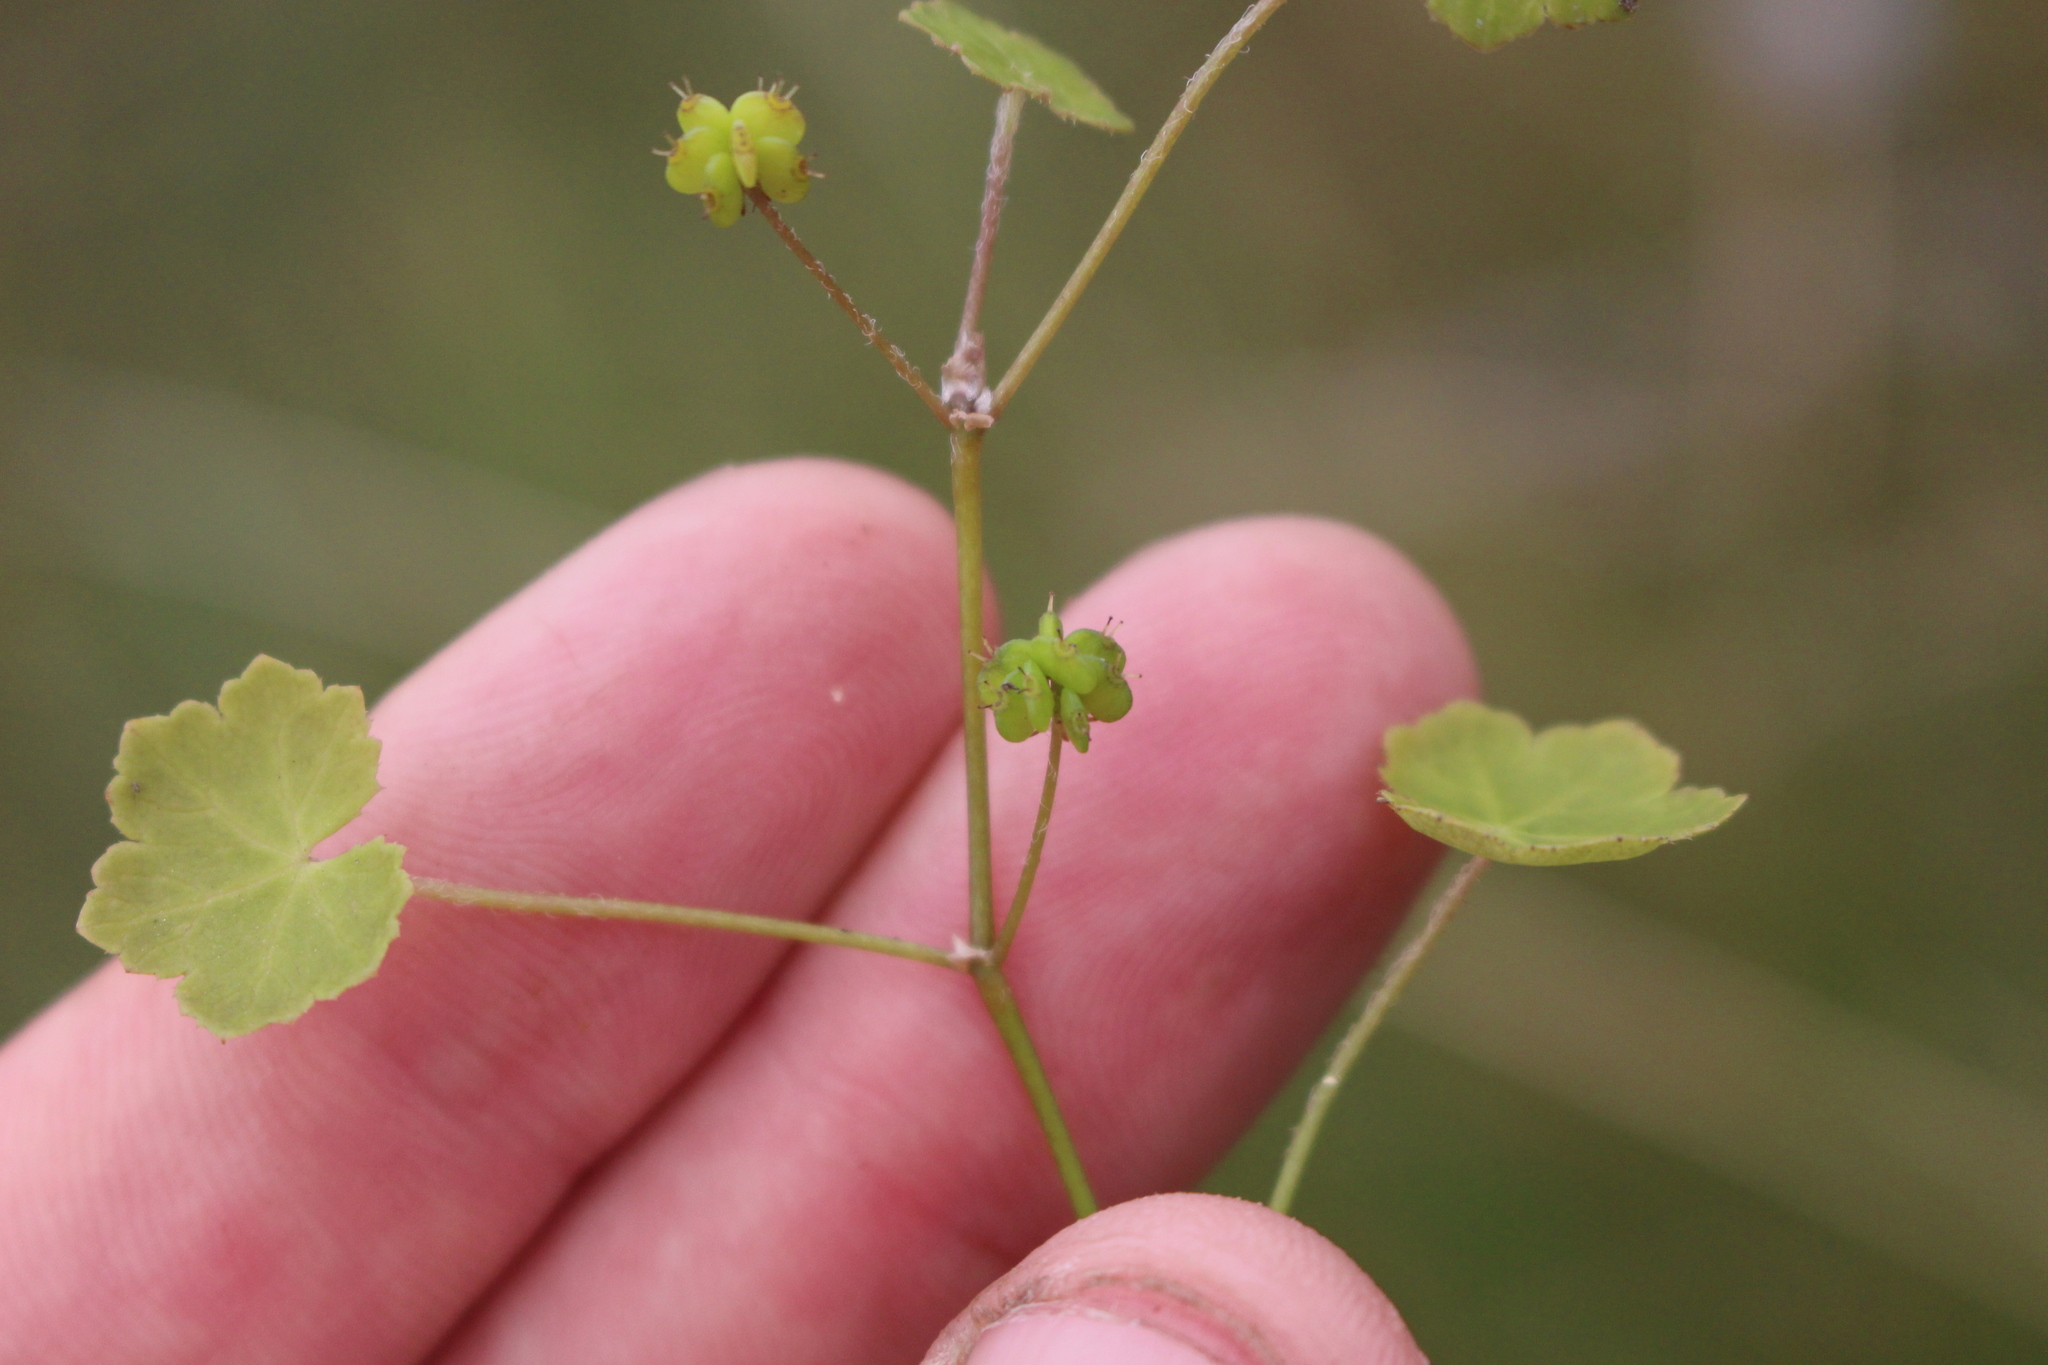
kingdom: Plantae
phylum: Tracheophyta
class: Magnoliopsida
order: Apiales
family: Araliaceae
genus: Hydrocotyle
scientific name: Hydrocotyle novae-zeelandiae
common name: New zealand pennywort
